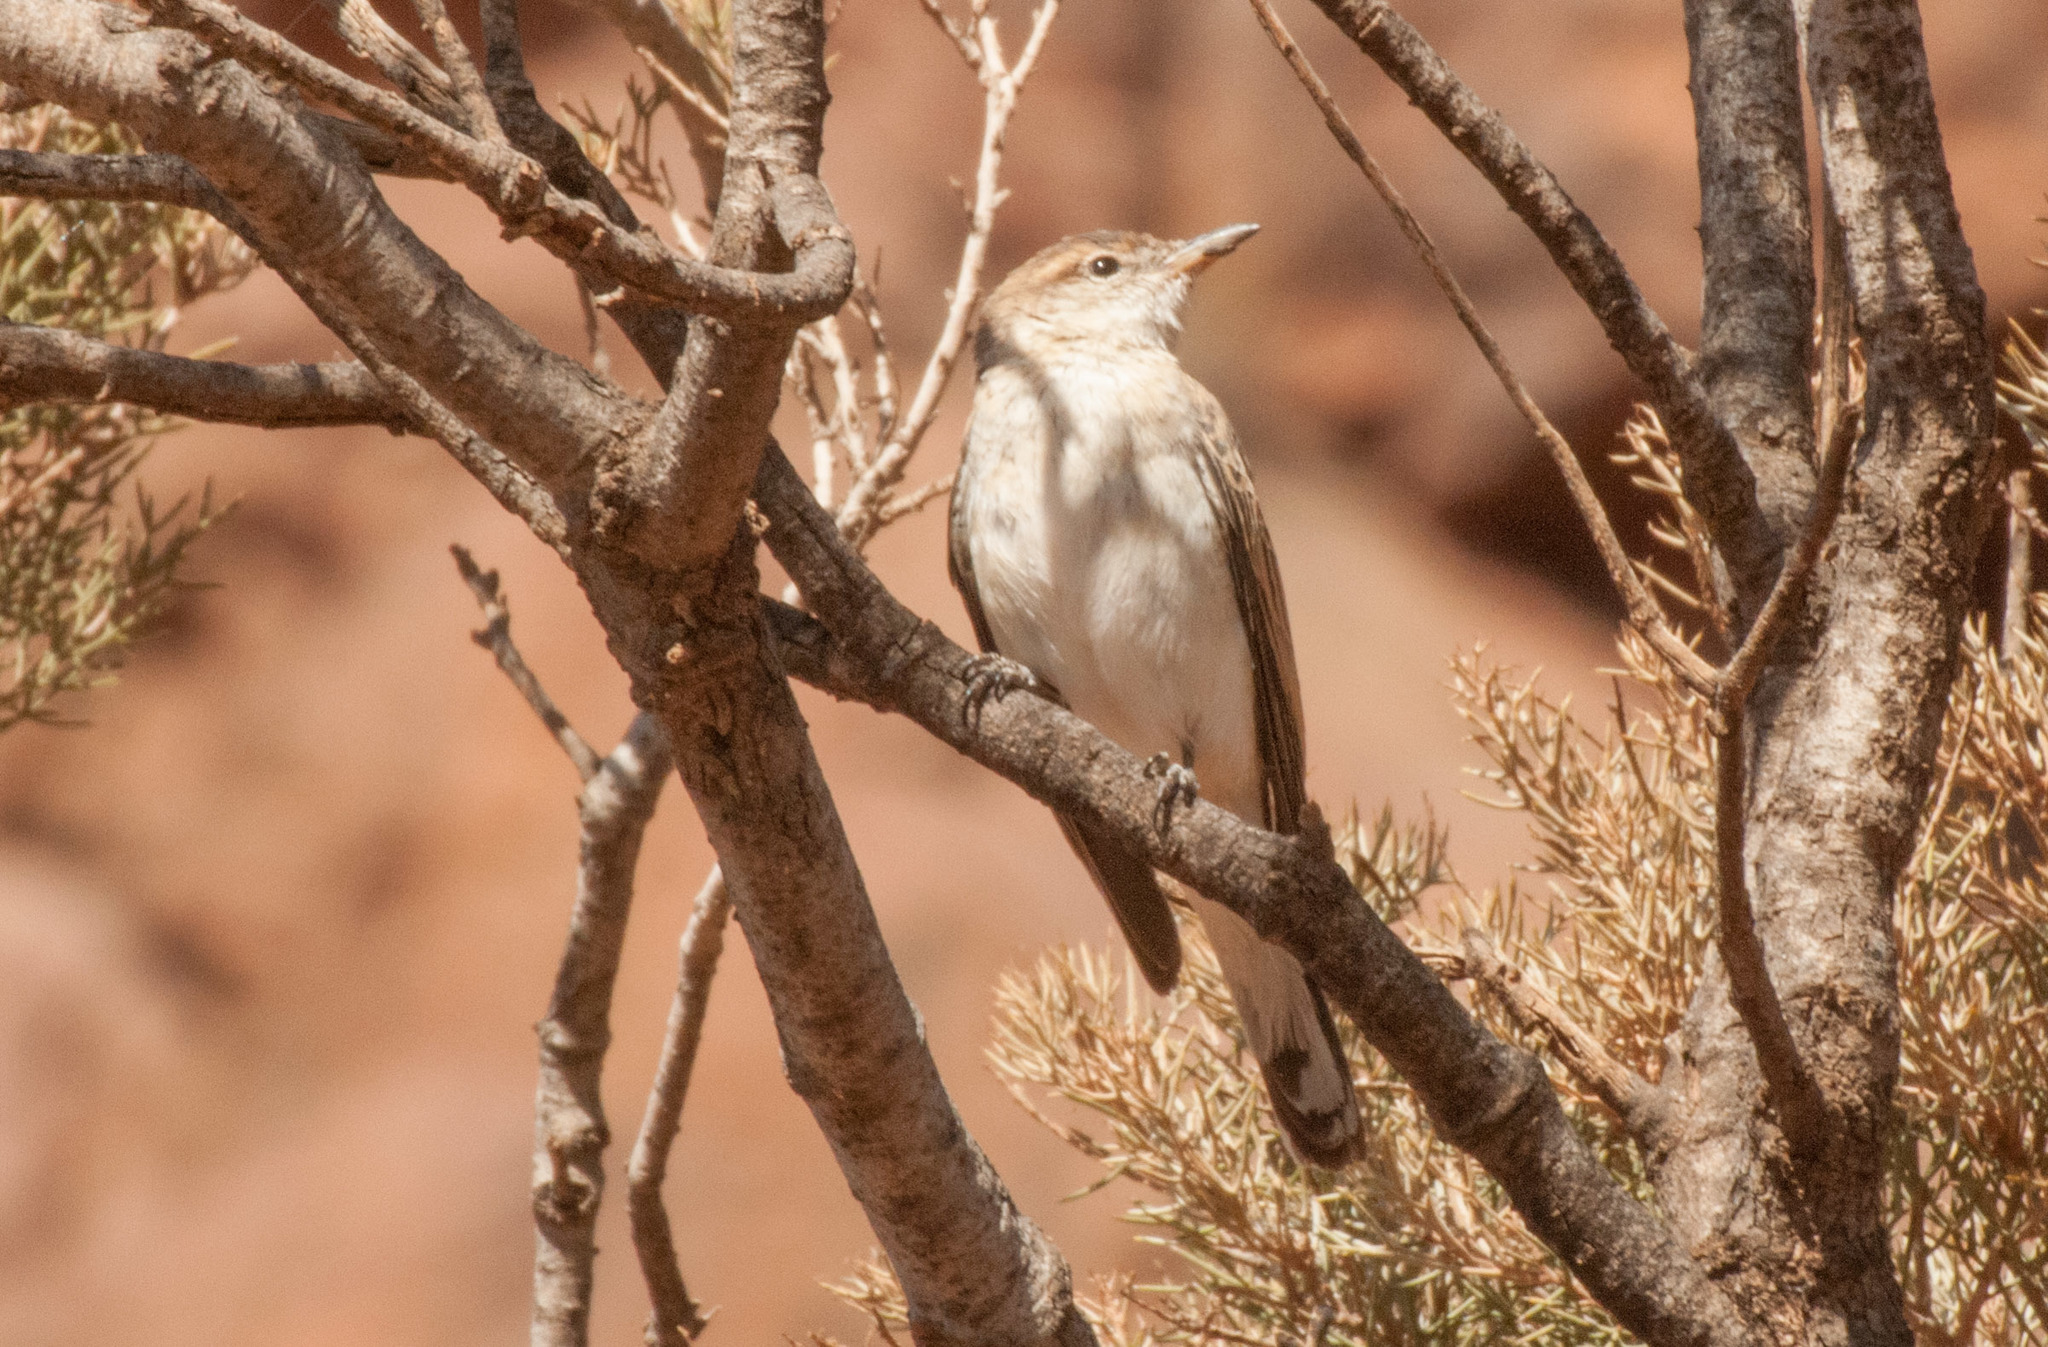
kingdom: Animalia
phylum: Chordata
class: Aves
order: Passeriformes
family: Campephagidae
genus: Lalage
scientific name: Lalage tricolor
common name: White-winged triller
